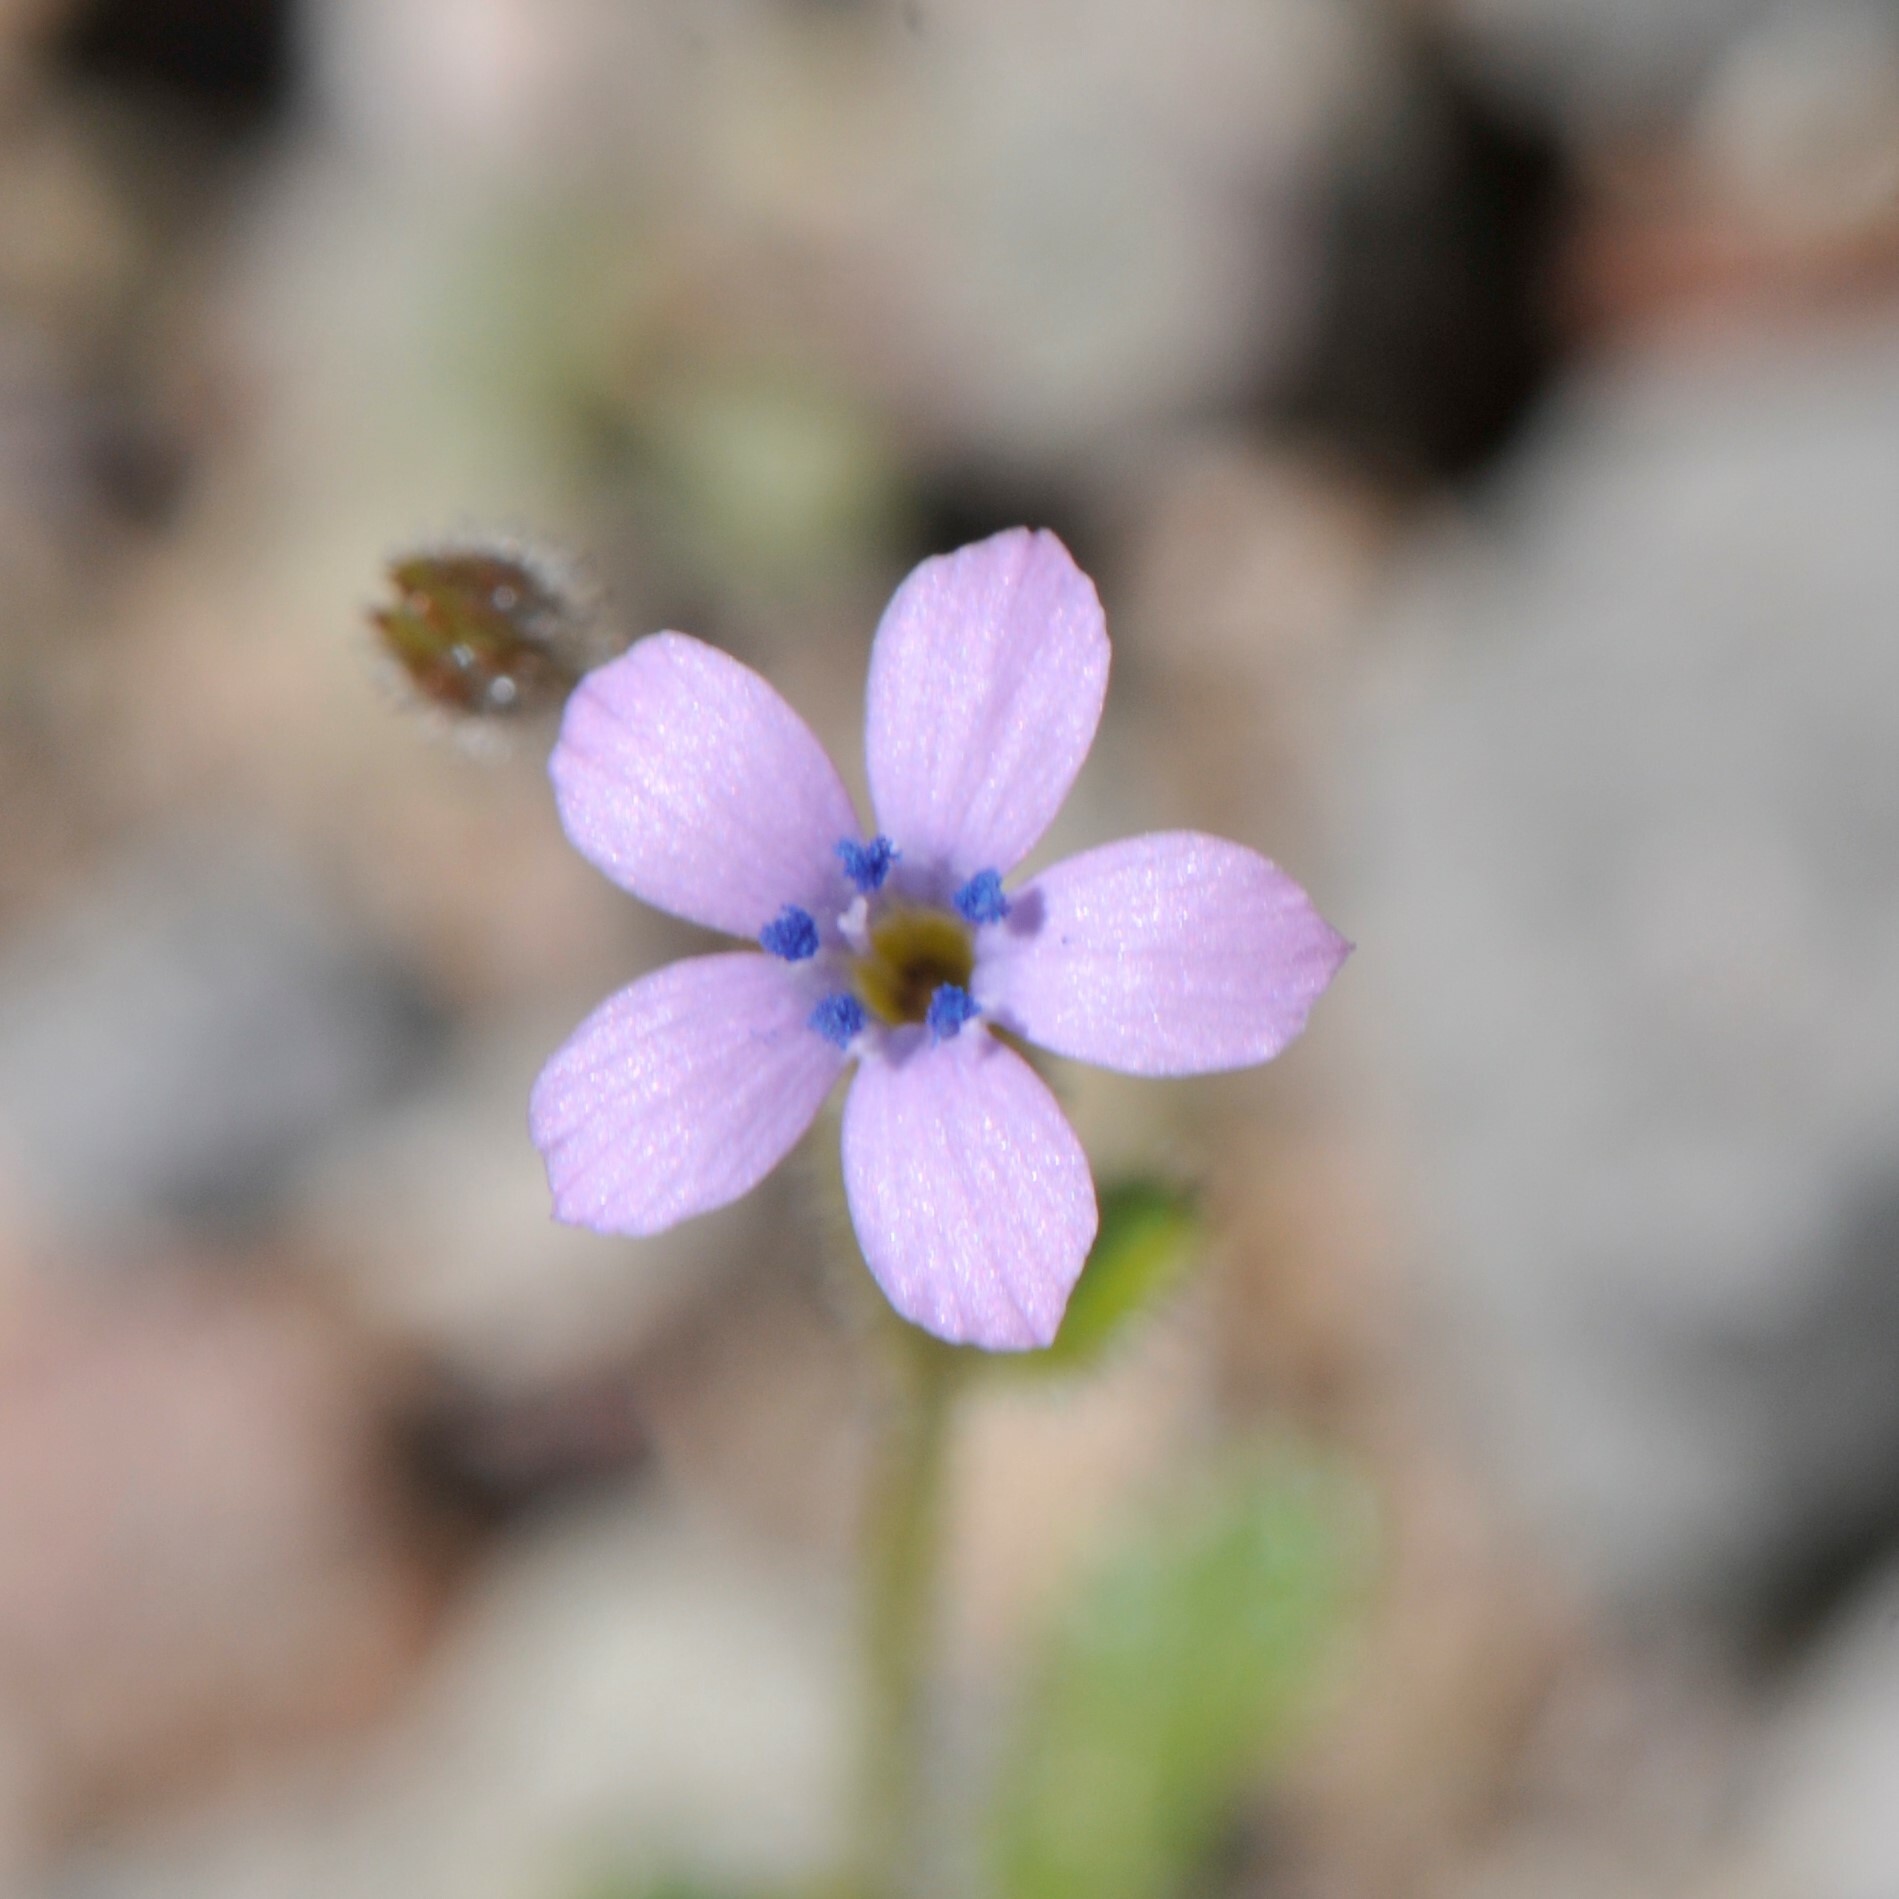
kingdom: Plantae
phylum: Tracheophyta
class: Magnoliopsida
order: Ericales
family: Polemoniaceae
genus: Gilia
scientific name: Gilia scopulorum
